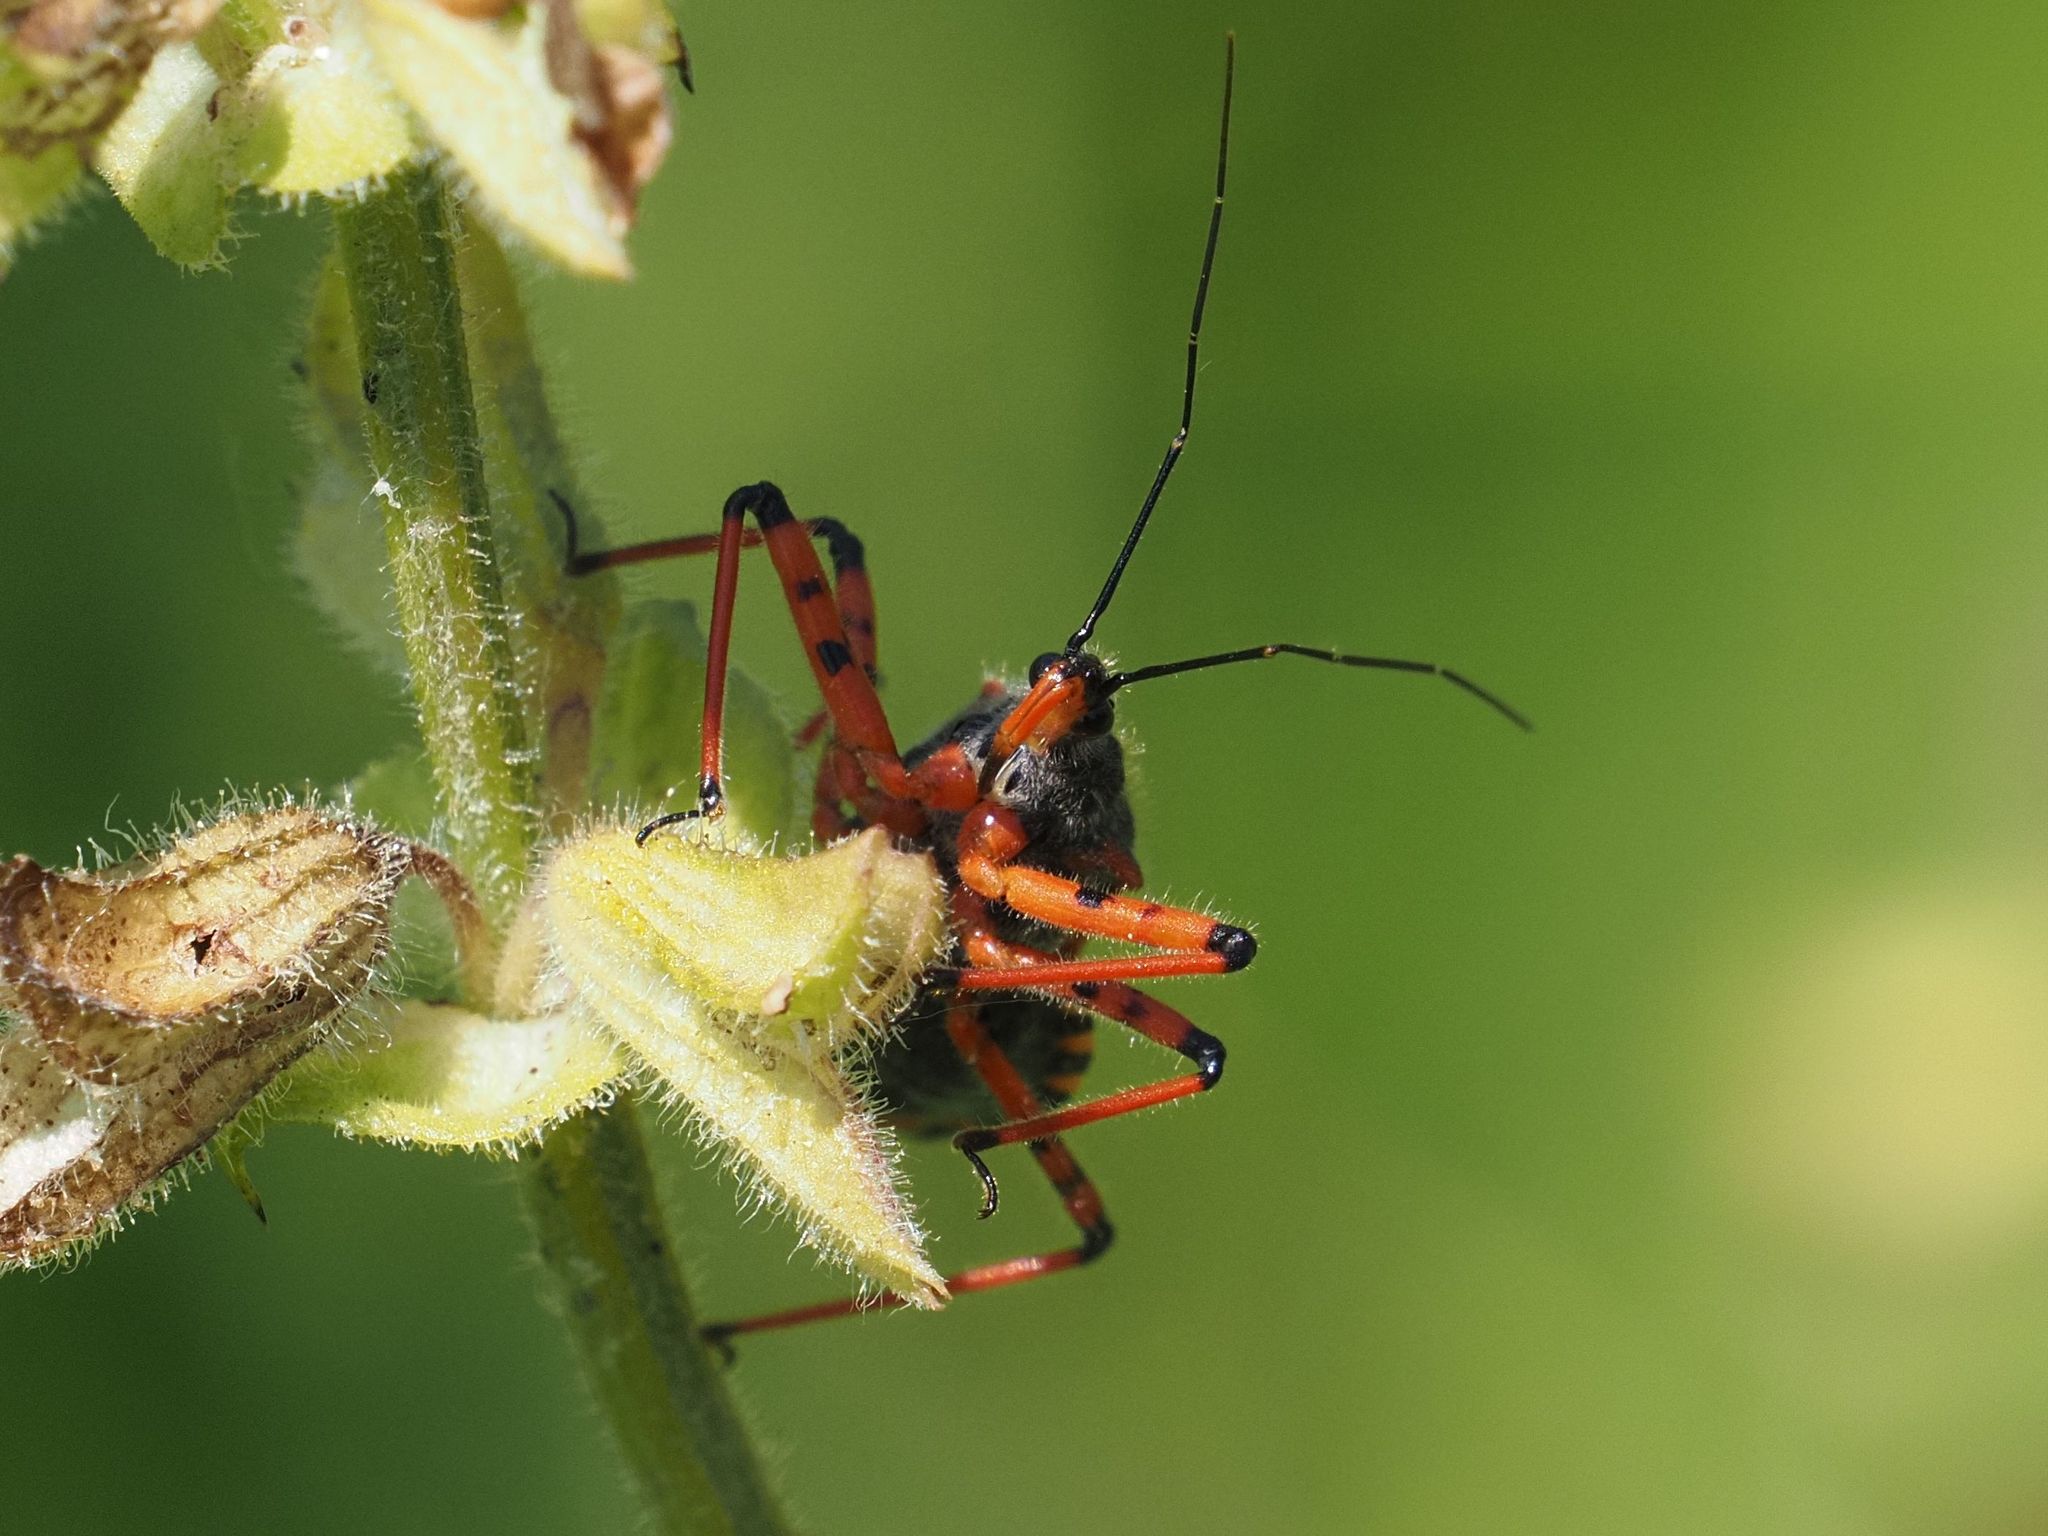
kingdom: Animalia
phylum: Arthropoda
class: Insecta
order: Hemiptera
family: Reduviidae
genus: Rhynocoris
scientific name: Rhynocoris iracundus
